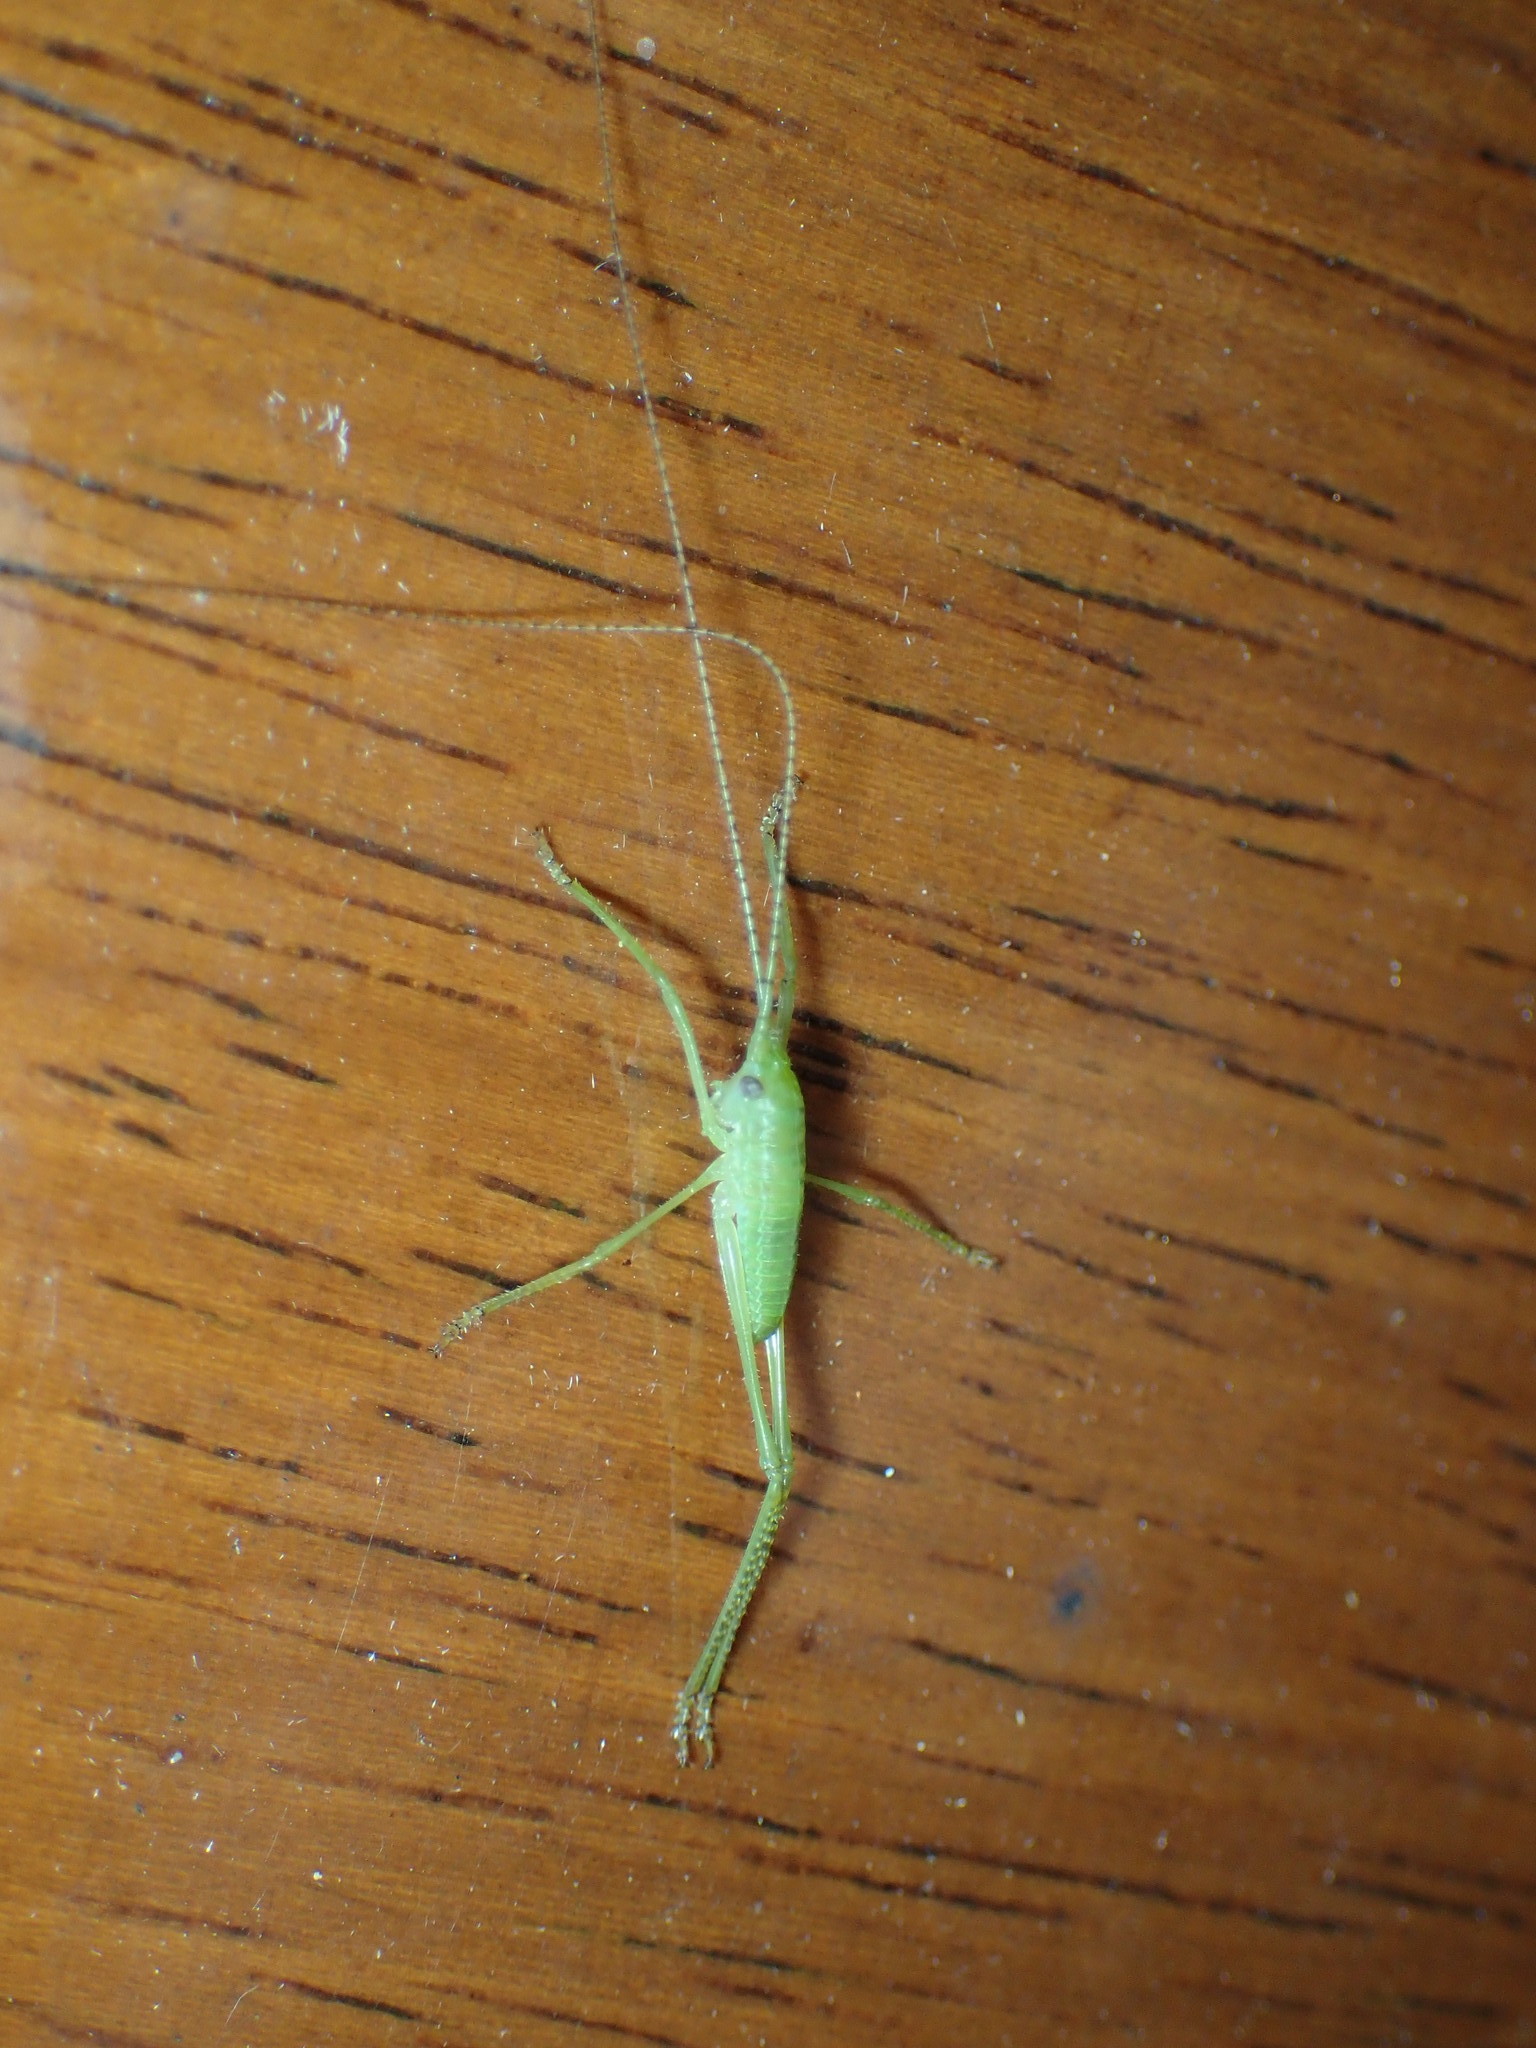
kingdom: Animalia
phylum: Arthropoda
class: Insecta
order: Orthoptera
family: Tettigoniidae
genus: Pterophylla
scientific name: Pterophylla camellifolia
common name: Common true katydid
